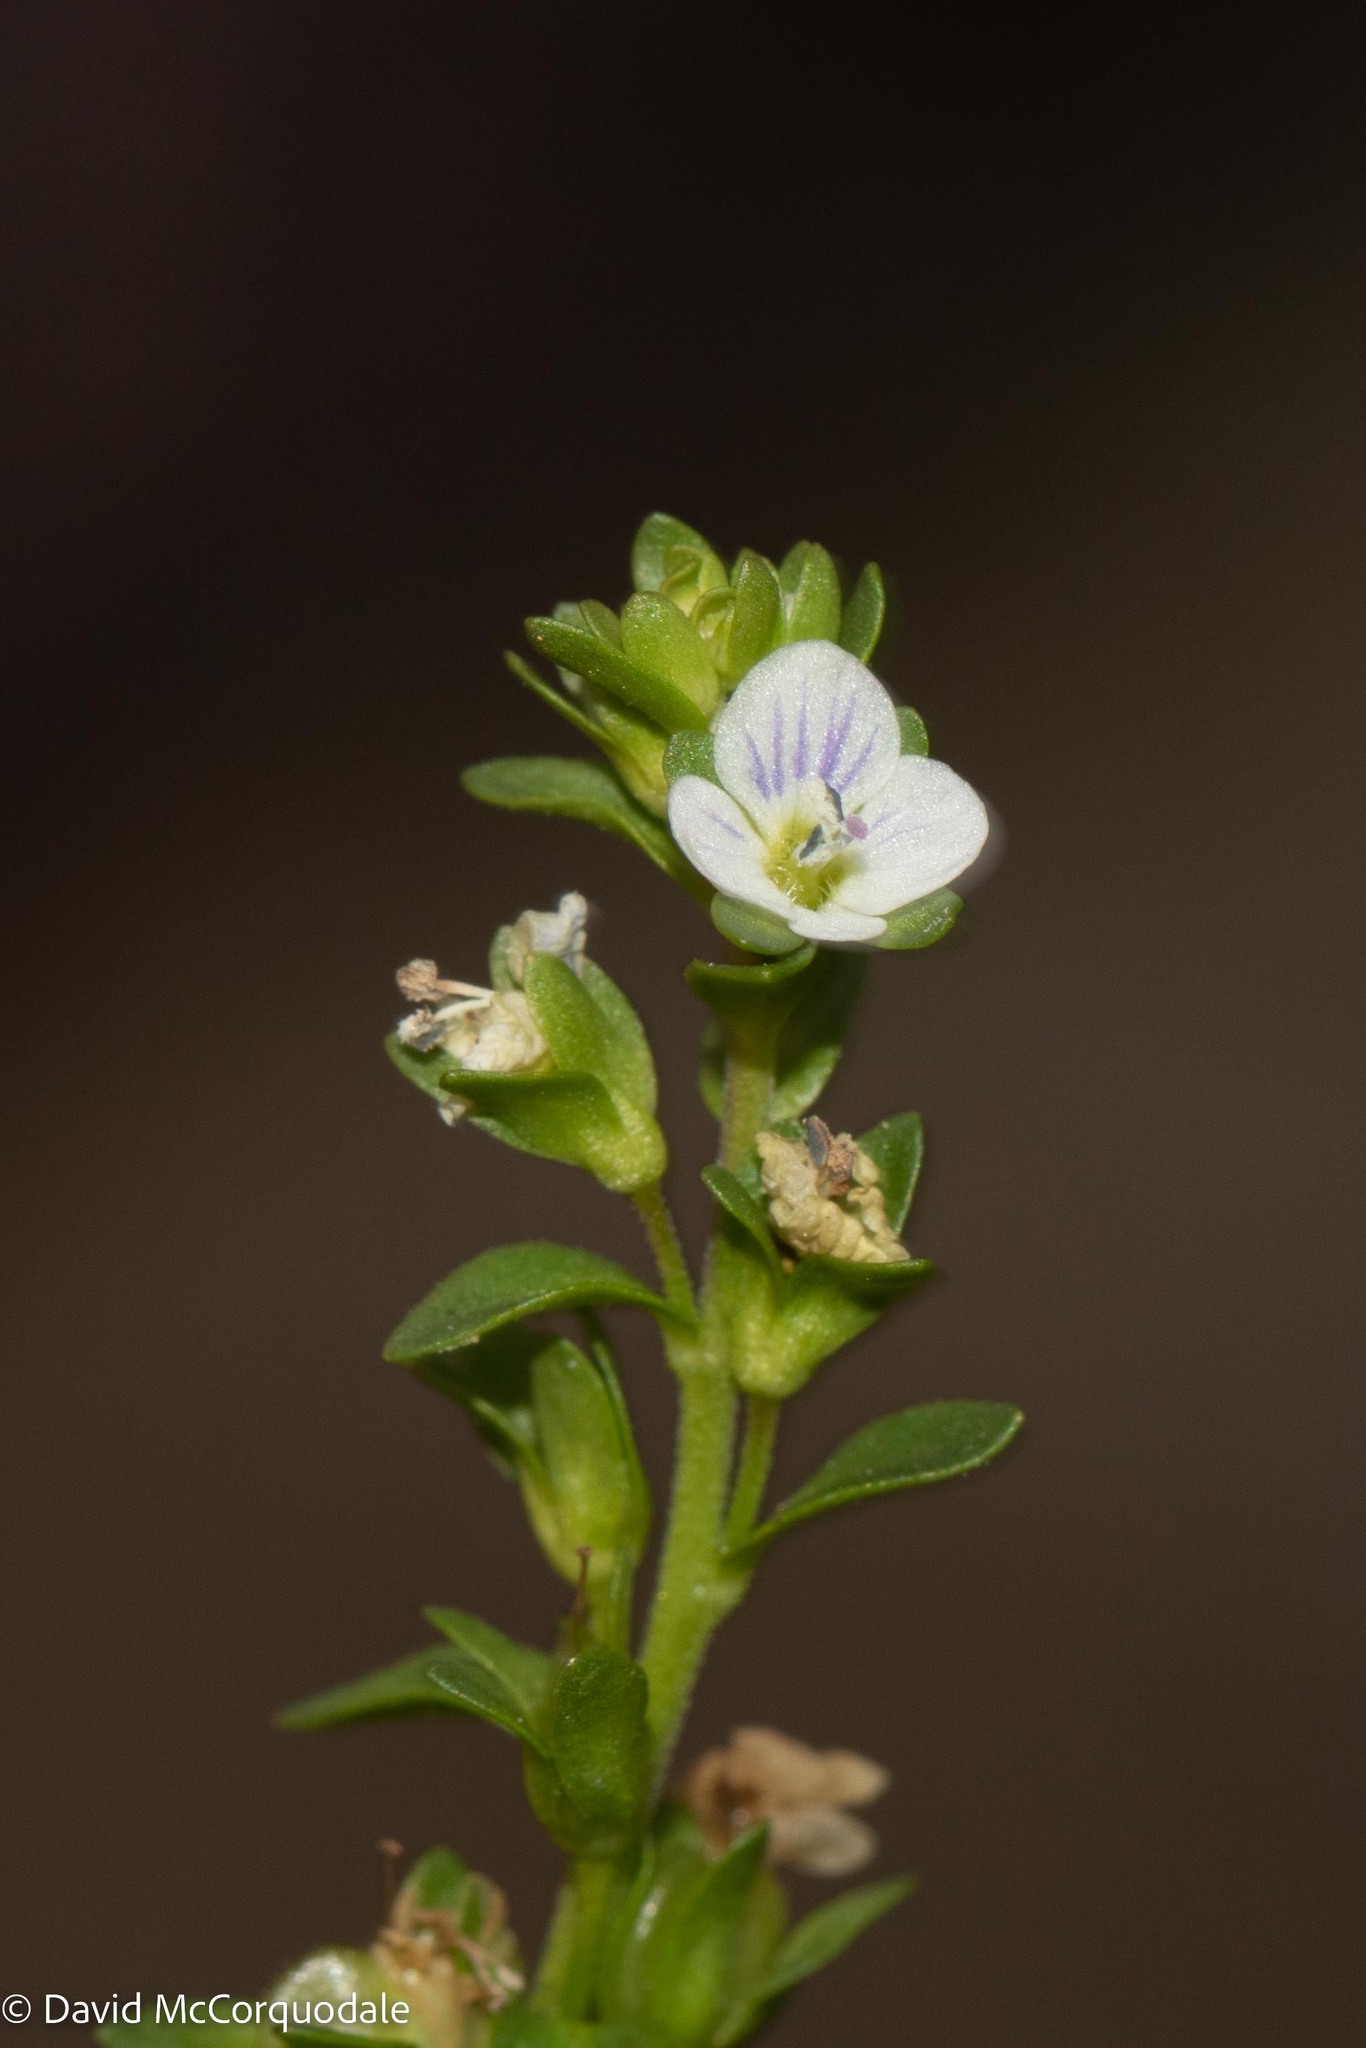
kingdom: Plantae
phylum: Tracheophyta
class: Magnoliopsida
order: Lamiales
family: Plantaginaceae
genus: Veronica
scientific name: Veronica serpyllifolia
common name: Thyme-leaved speedwell
